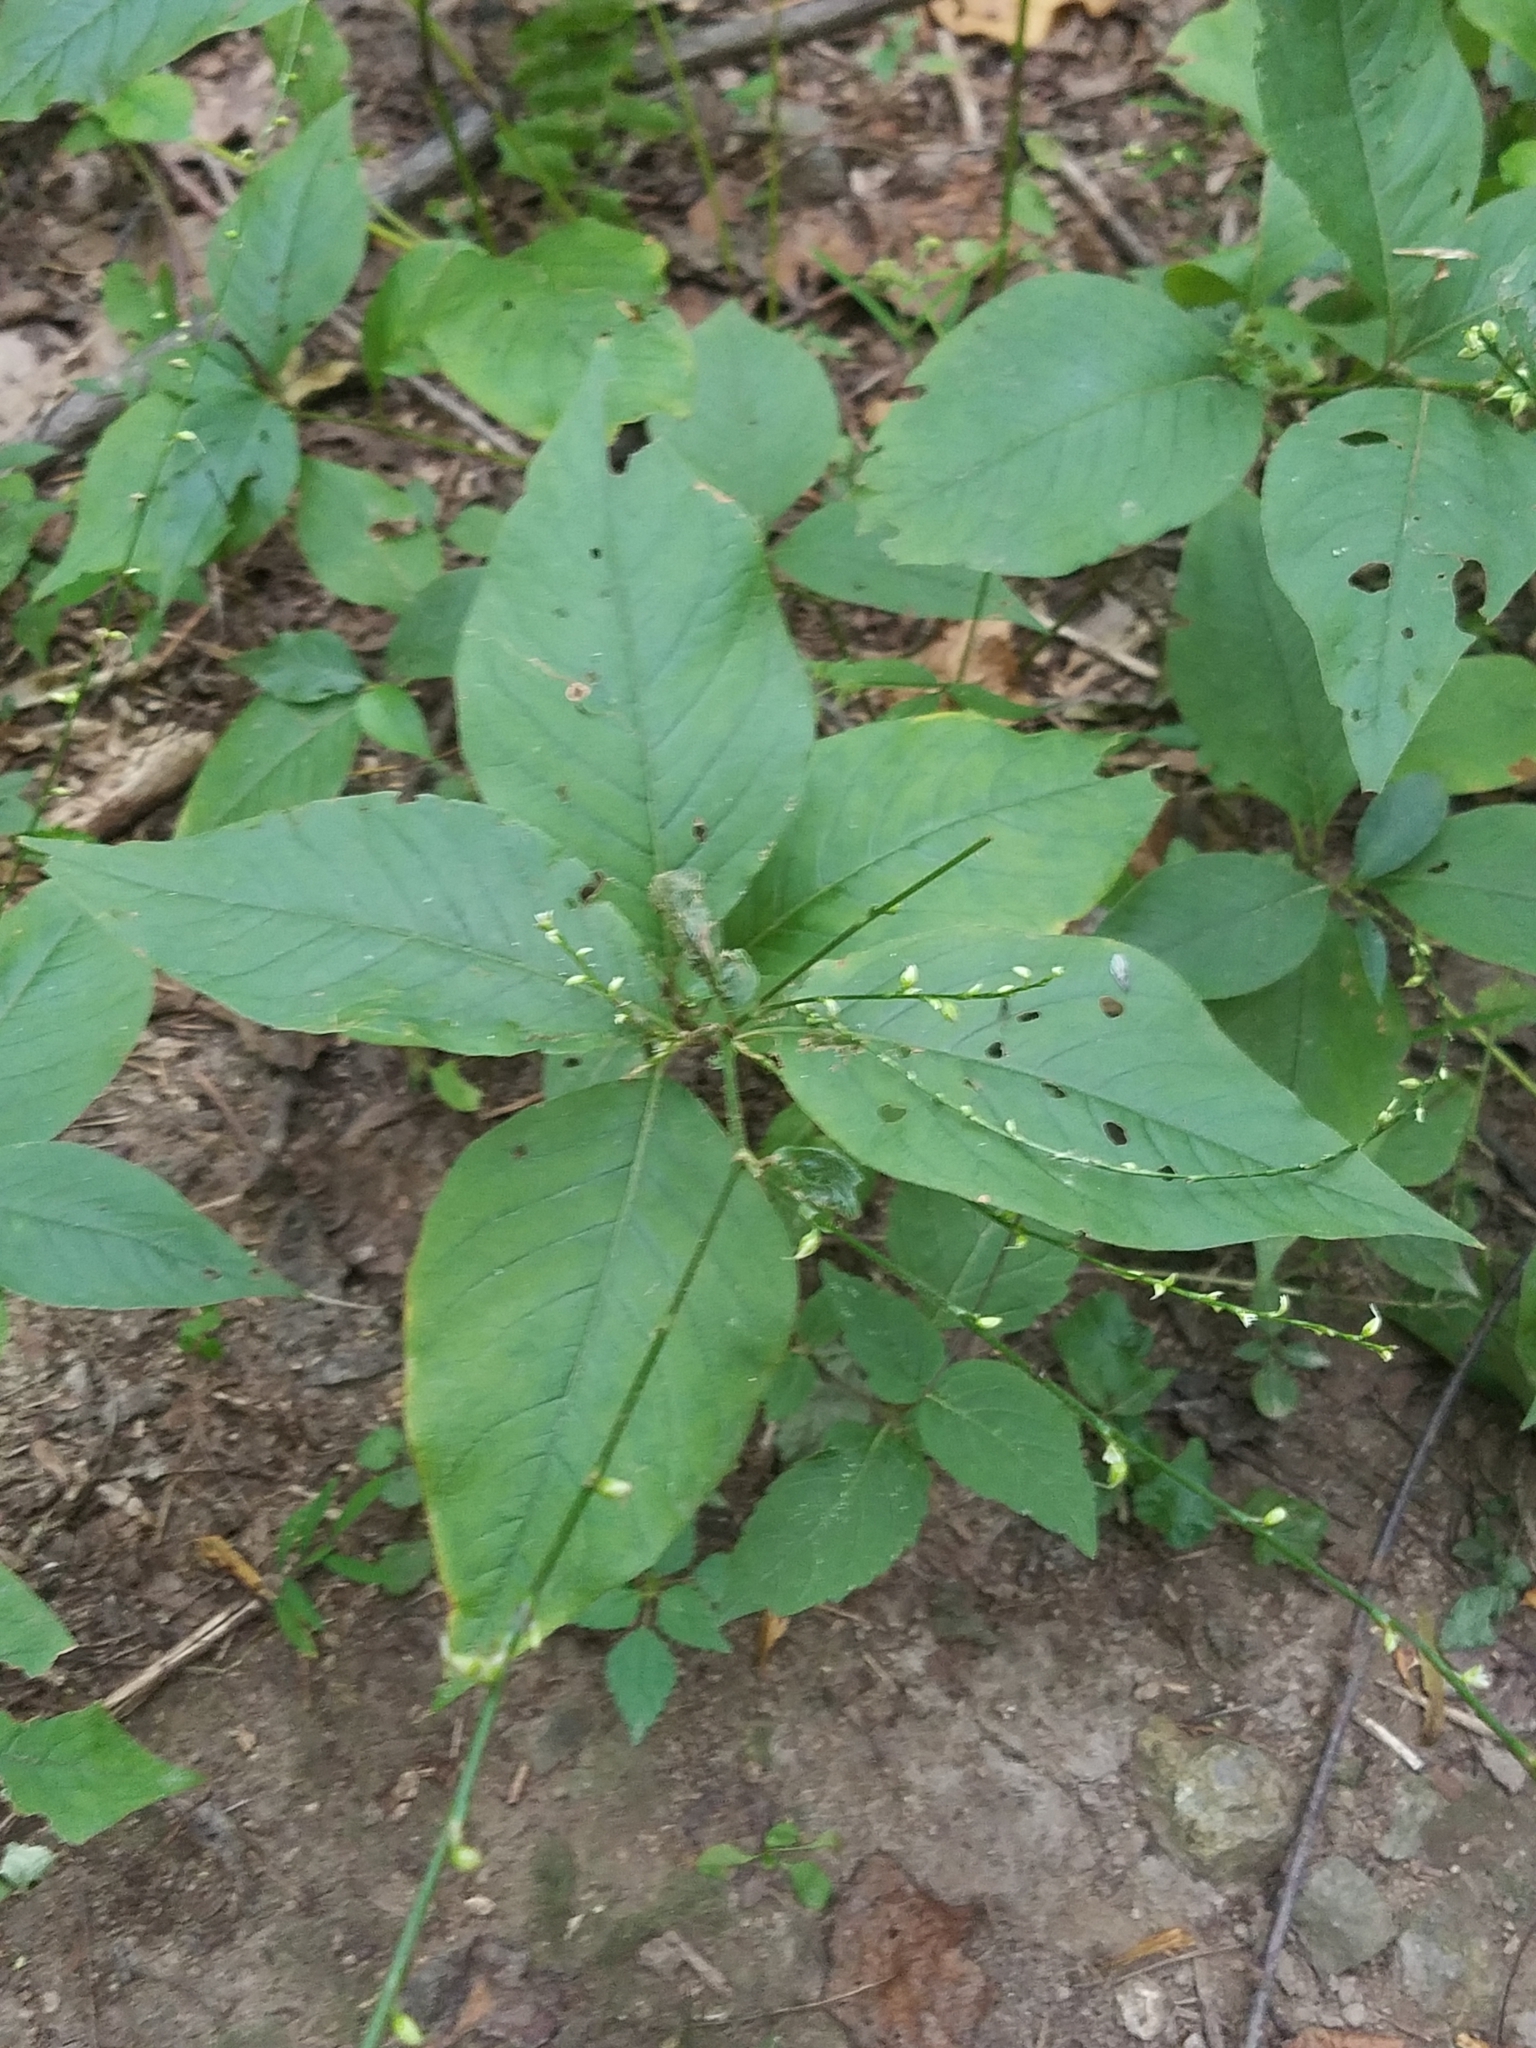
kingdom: Plantae
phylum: Tracheophyta
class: Magnoliopsida
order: Caryophyllales
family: Polygonaceae
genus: Persicaria
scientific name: Persicaria virginiana
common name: Jumpseed
